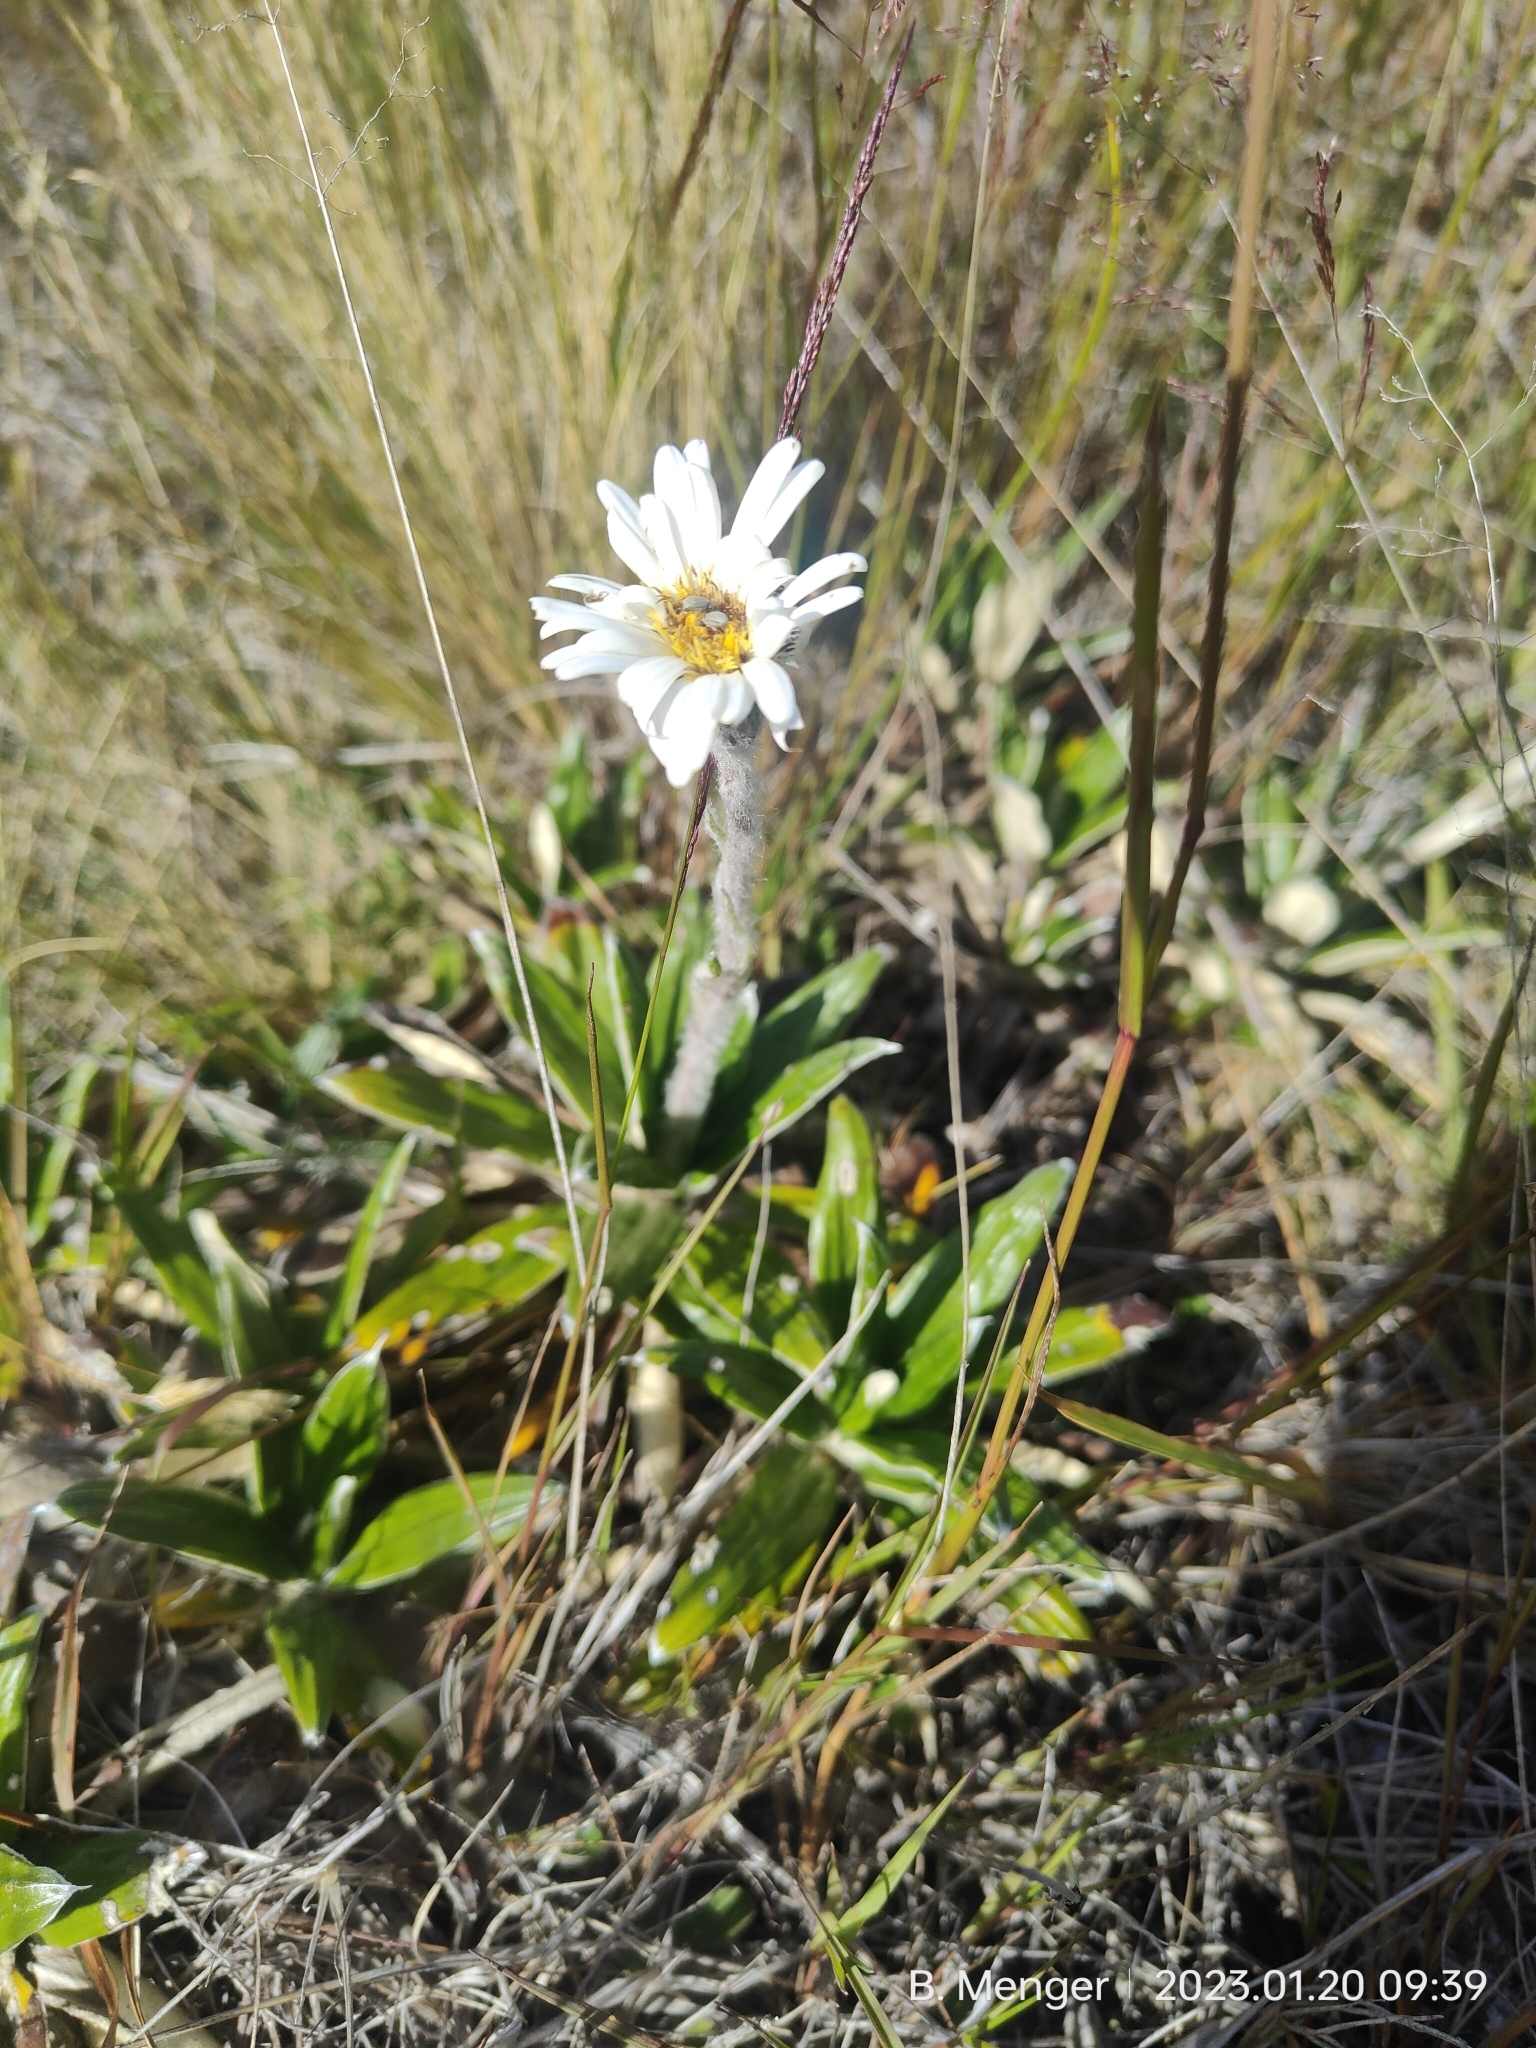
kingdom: Plantae
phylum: Tracheophyta
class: Magnoliopsida
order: Asterales
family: Asteraceae
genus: Celmisia
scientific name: Celmisia spectabilis
